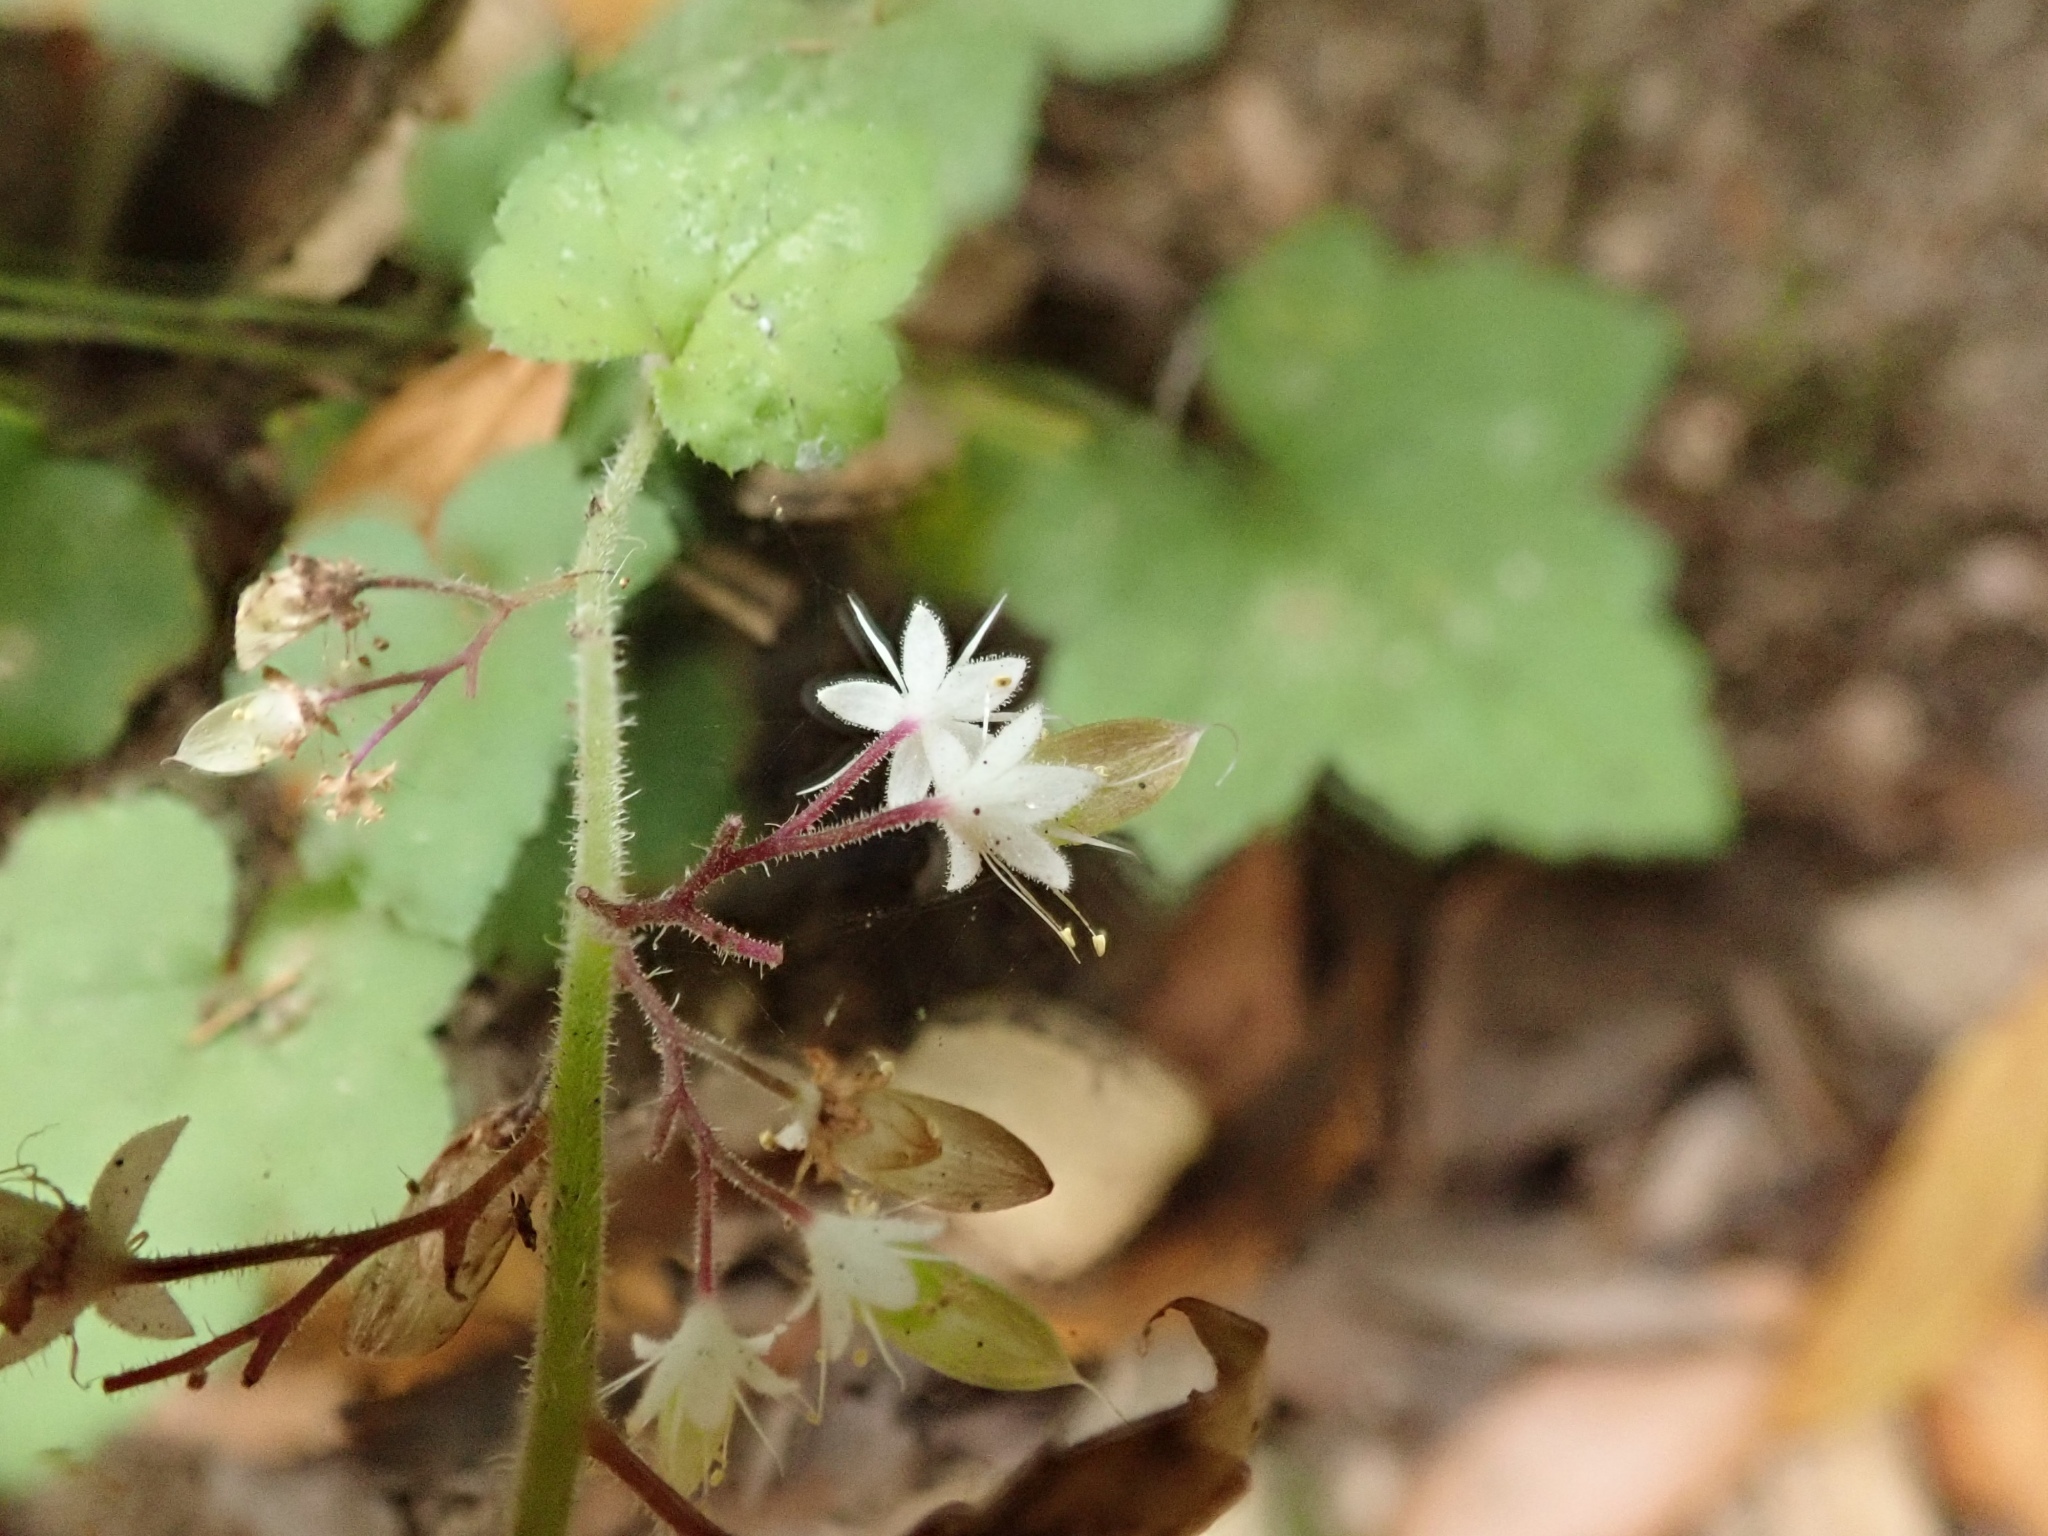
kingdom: Plantae
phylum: Tracheophyta
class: Magnoliopsida
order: Saxifragales
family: Saxifragaceae
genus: Tiarella
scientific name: Tiarella trifoliata
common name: Sugar-scoop
